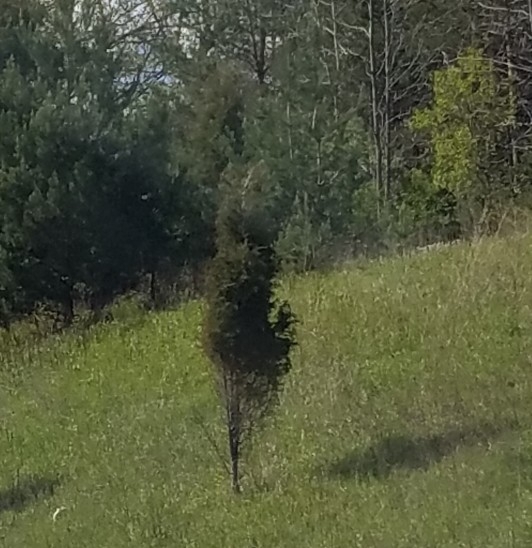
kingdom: Plantae
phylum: Tracheophyta
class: Pinopsida
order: Pinales
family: Cupressaceae
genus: Juniperus
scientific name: Juniperus virginiana
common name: Red juniper
